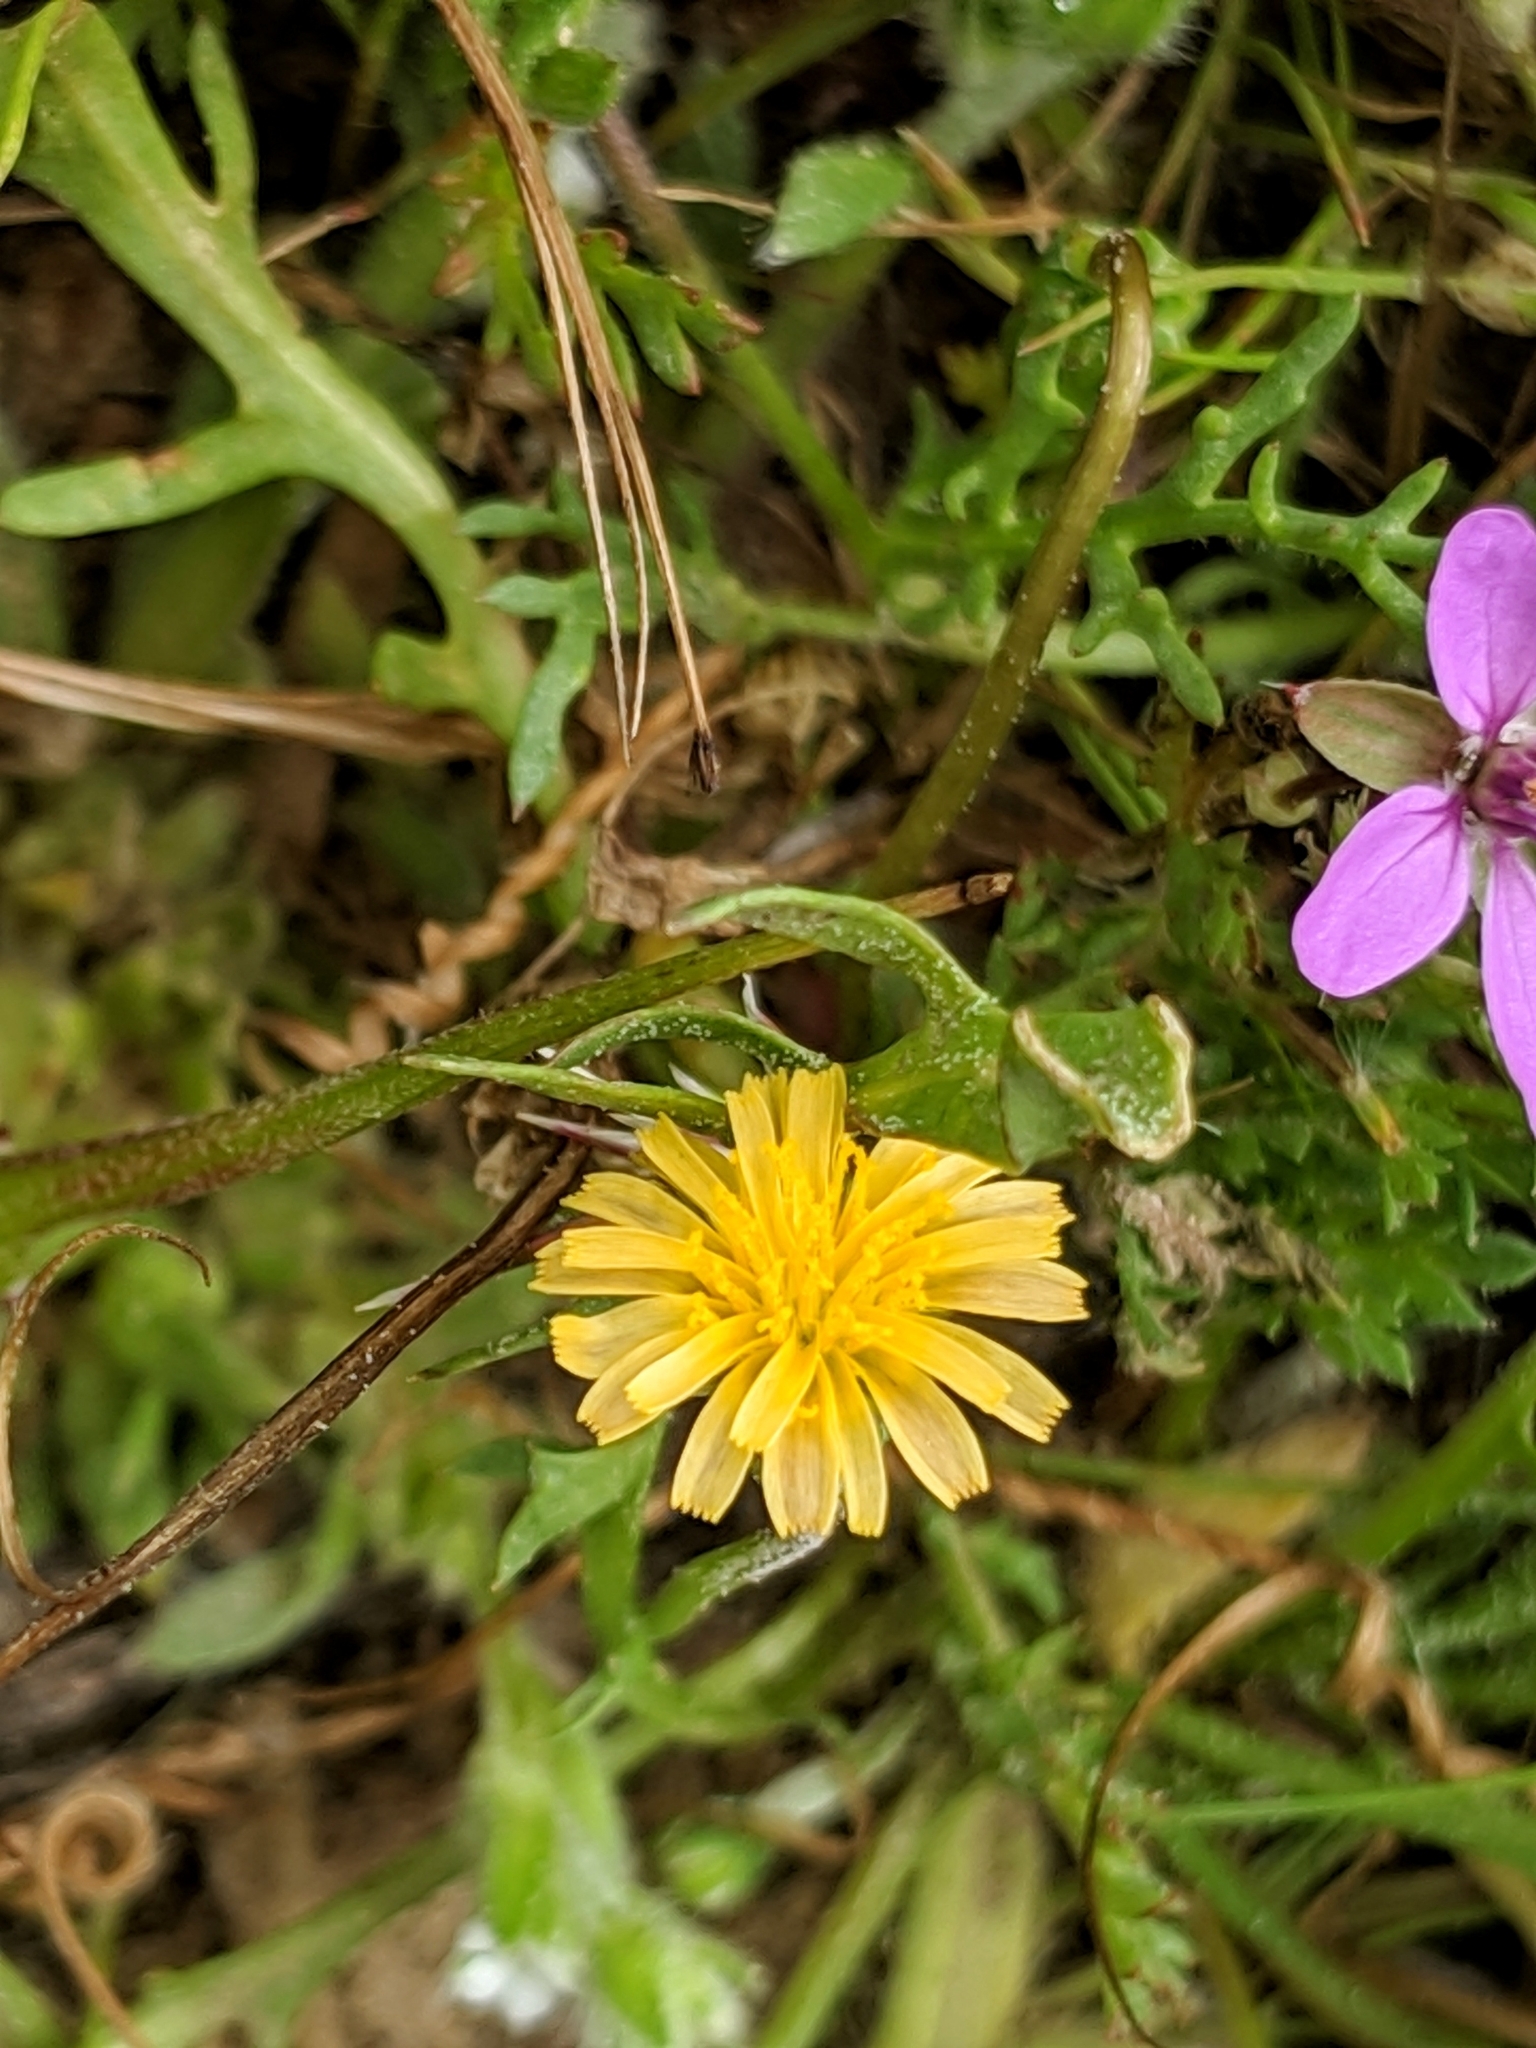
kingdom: Plantae
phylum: Tracheophyta
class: Magnoliopsida
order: Asterales
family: Asteraceae
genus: Microseris
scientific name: Microseris elegans
